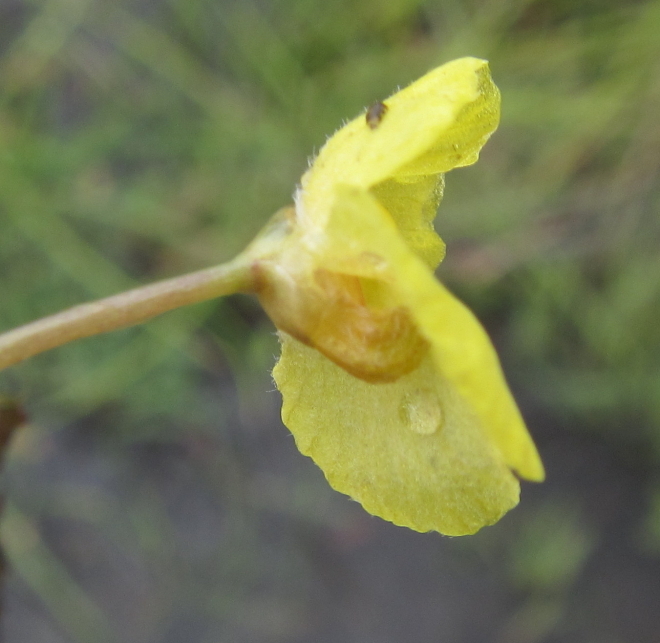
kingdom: Plantae
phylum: Tracheophyta
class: Magnoliopsida
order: Lamiales
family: Lentibulariaceae
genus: Utricularia
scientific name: Utricularia reflexa
